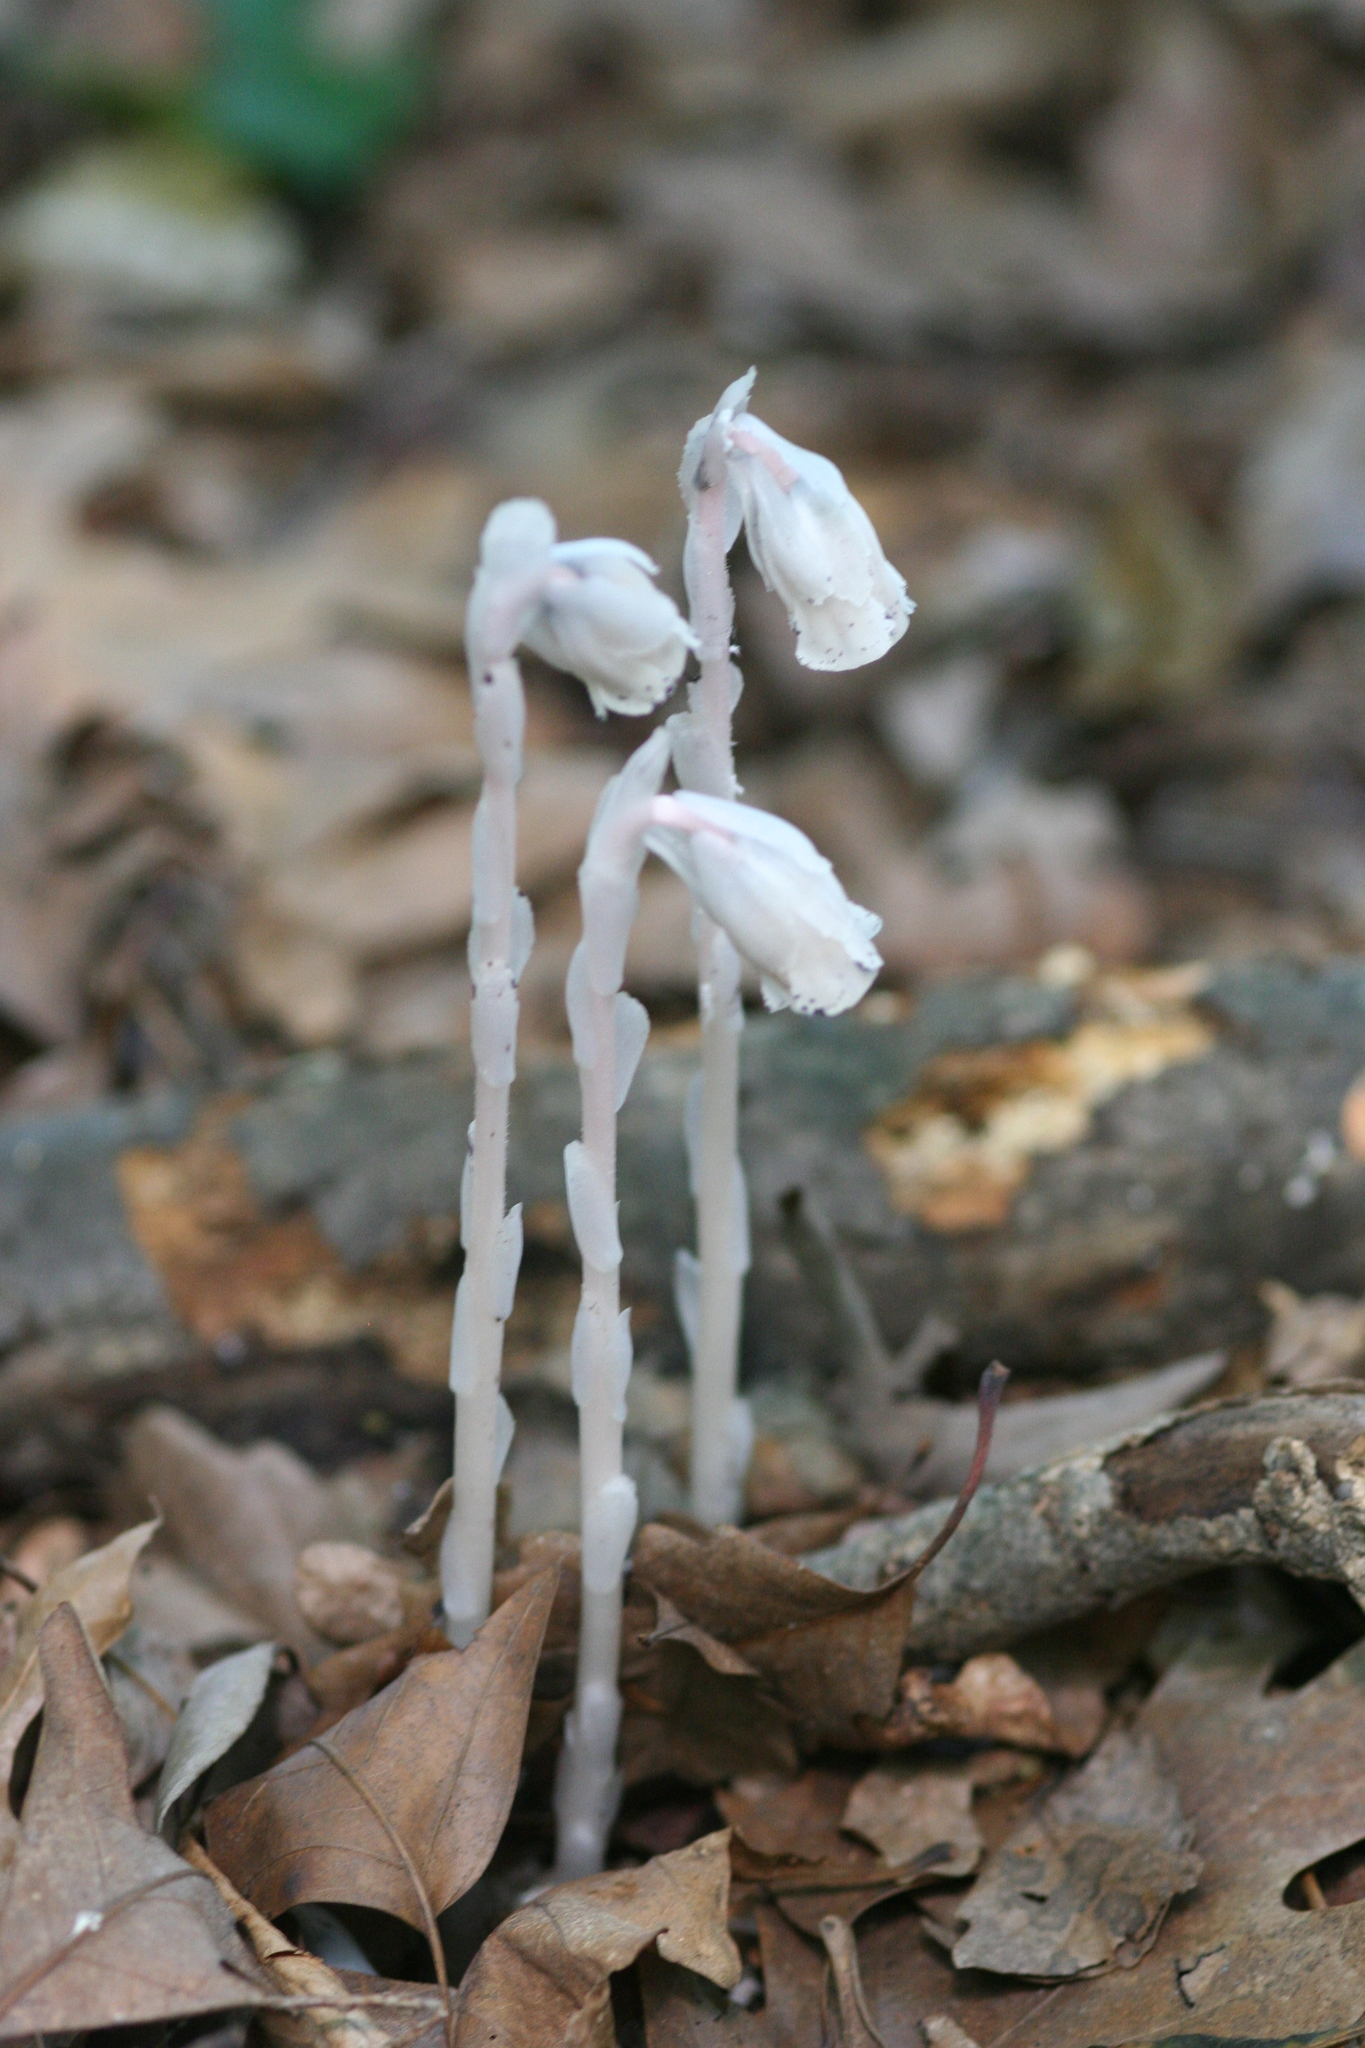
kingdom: Plantae
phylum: Tracheophyta
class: Magnoliopsida
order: Ericales
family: Ericaceae
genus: Monotropa
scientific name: Monotropa uniflora
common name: Convulsion root
